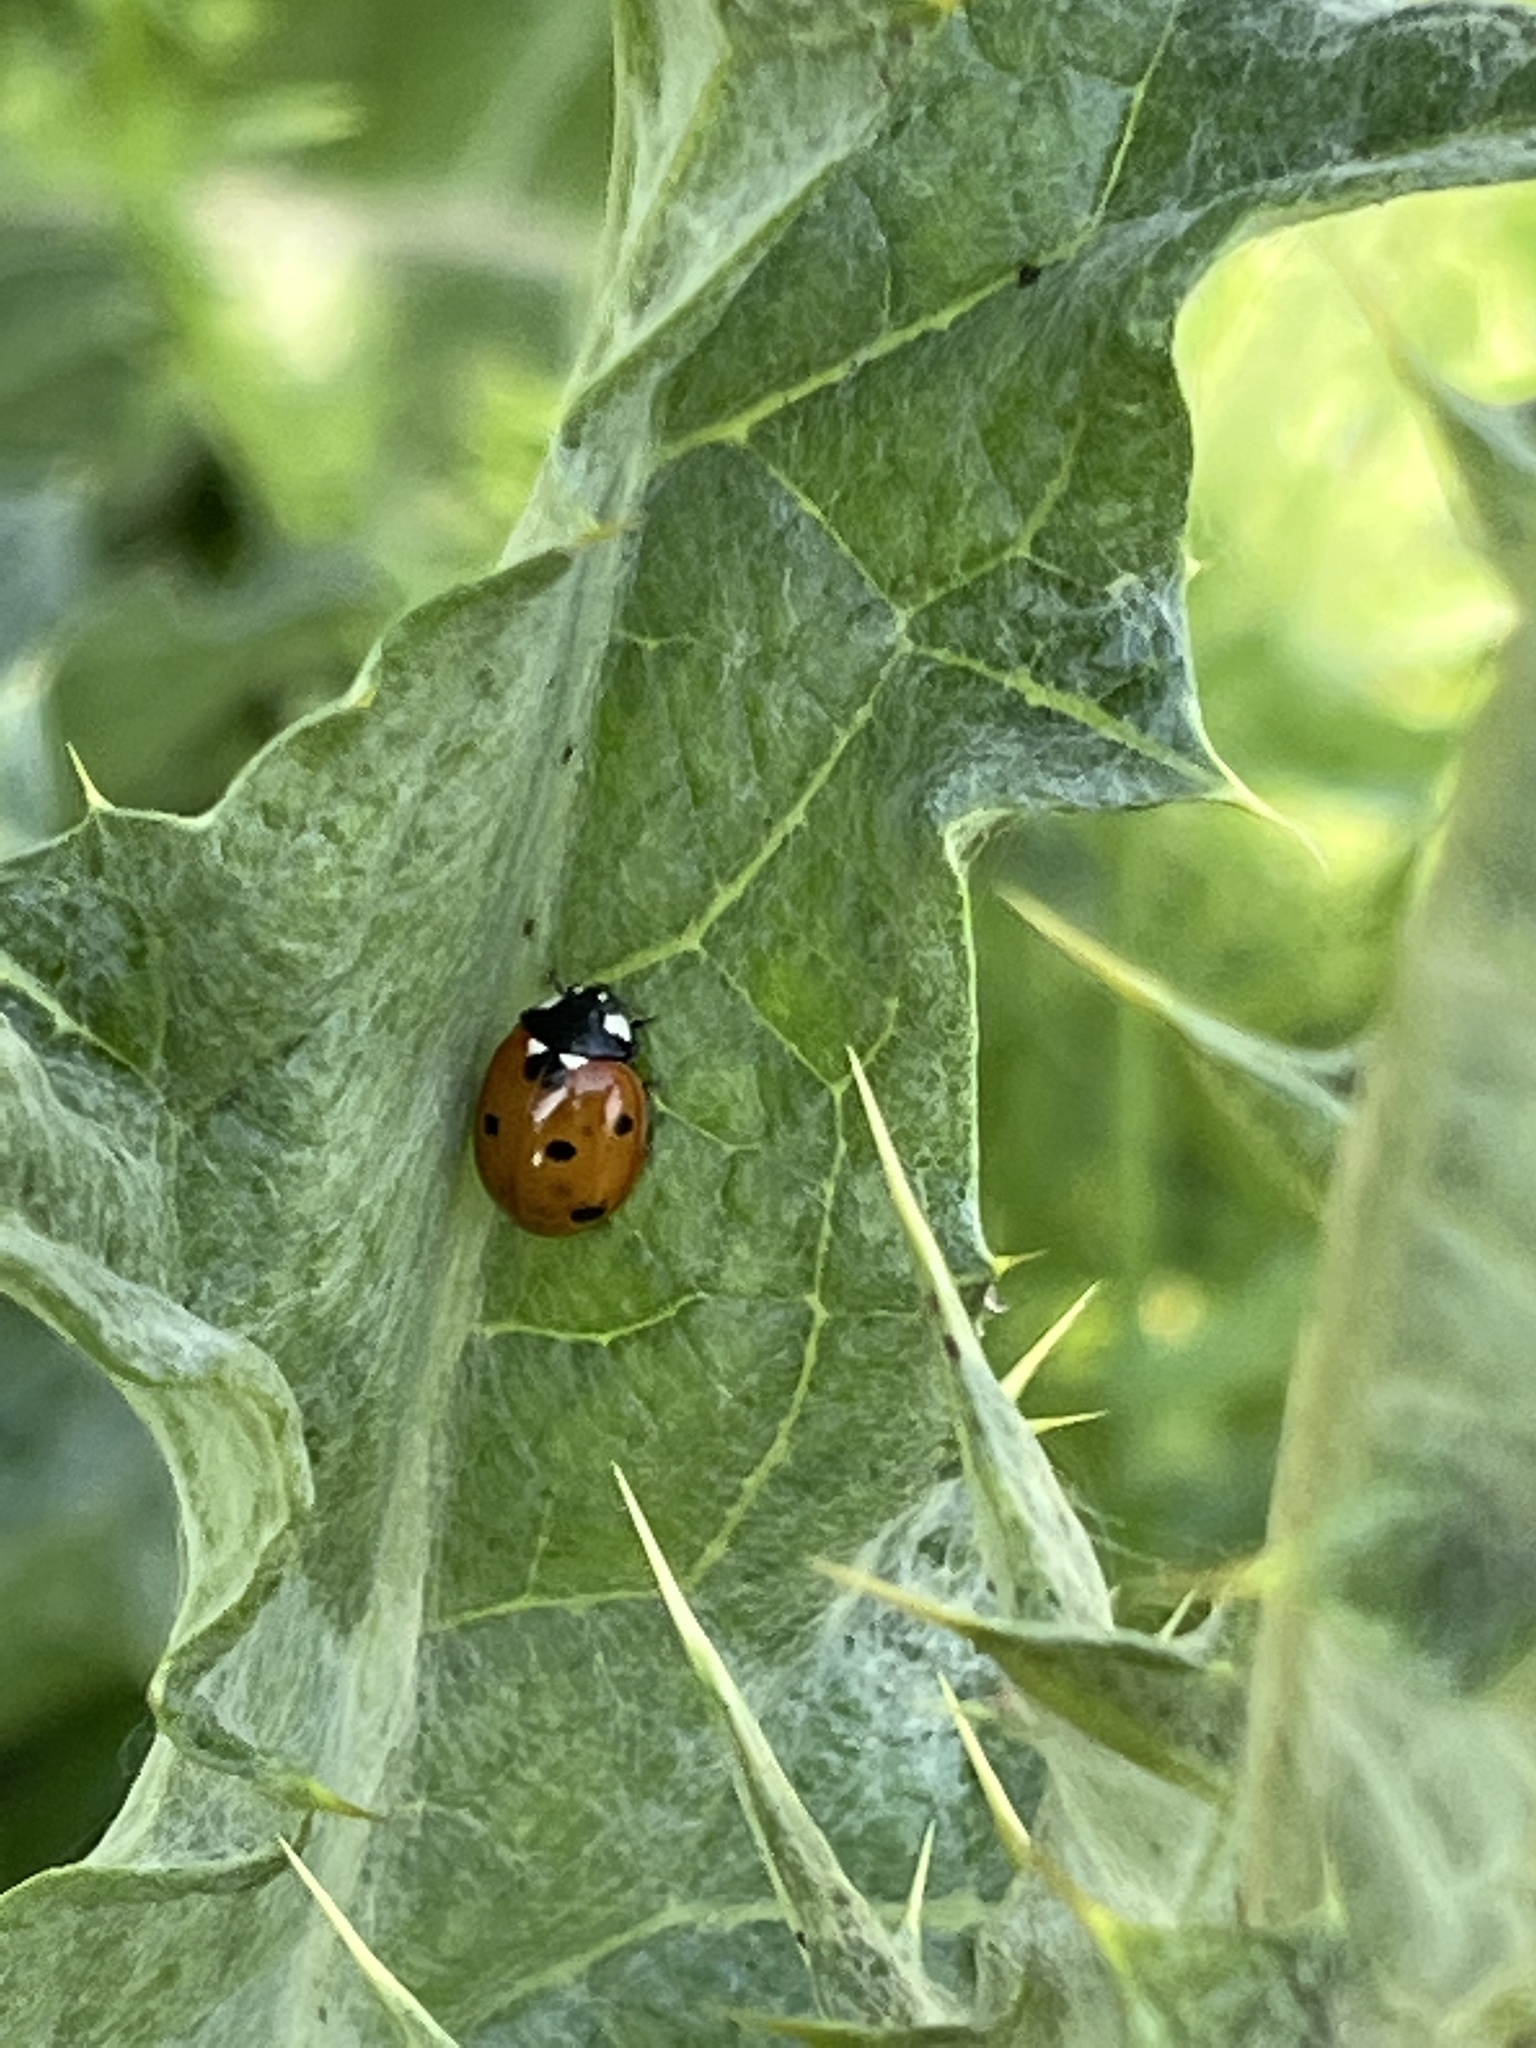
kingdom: Animalia
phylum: Arthropoda
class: Insecta
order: Coleoptera
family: Coccinellidae
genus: Coccinella
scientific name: Coccinella septempunctata
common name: Sevenspotted lady beetle
